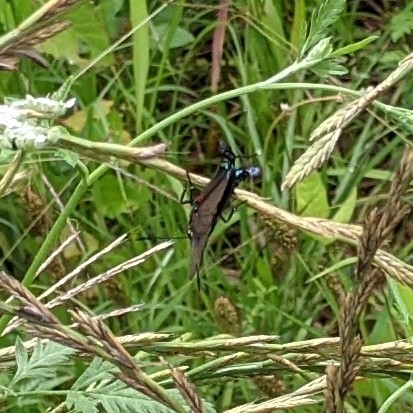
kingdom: Animalia
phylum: Arthropoda
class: Insecta
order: Lepidoptera
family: Lycaenidae
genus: Atlides
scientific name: Atlides halesus
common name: Great purple hairstreak
